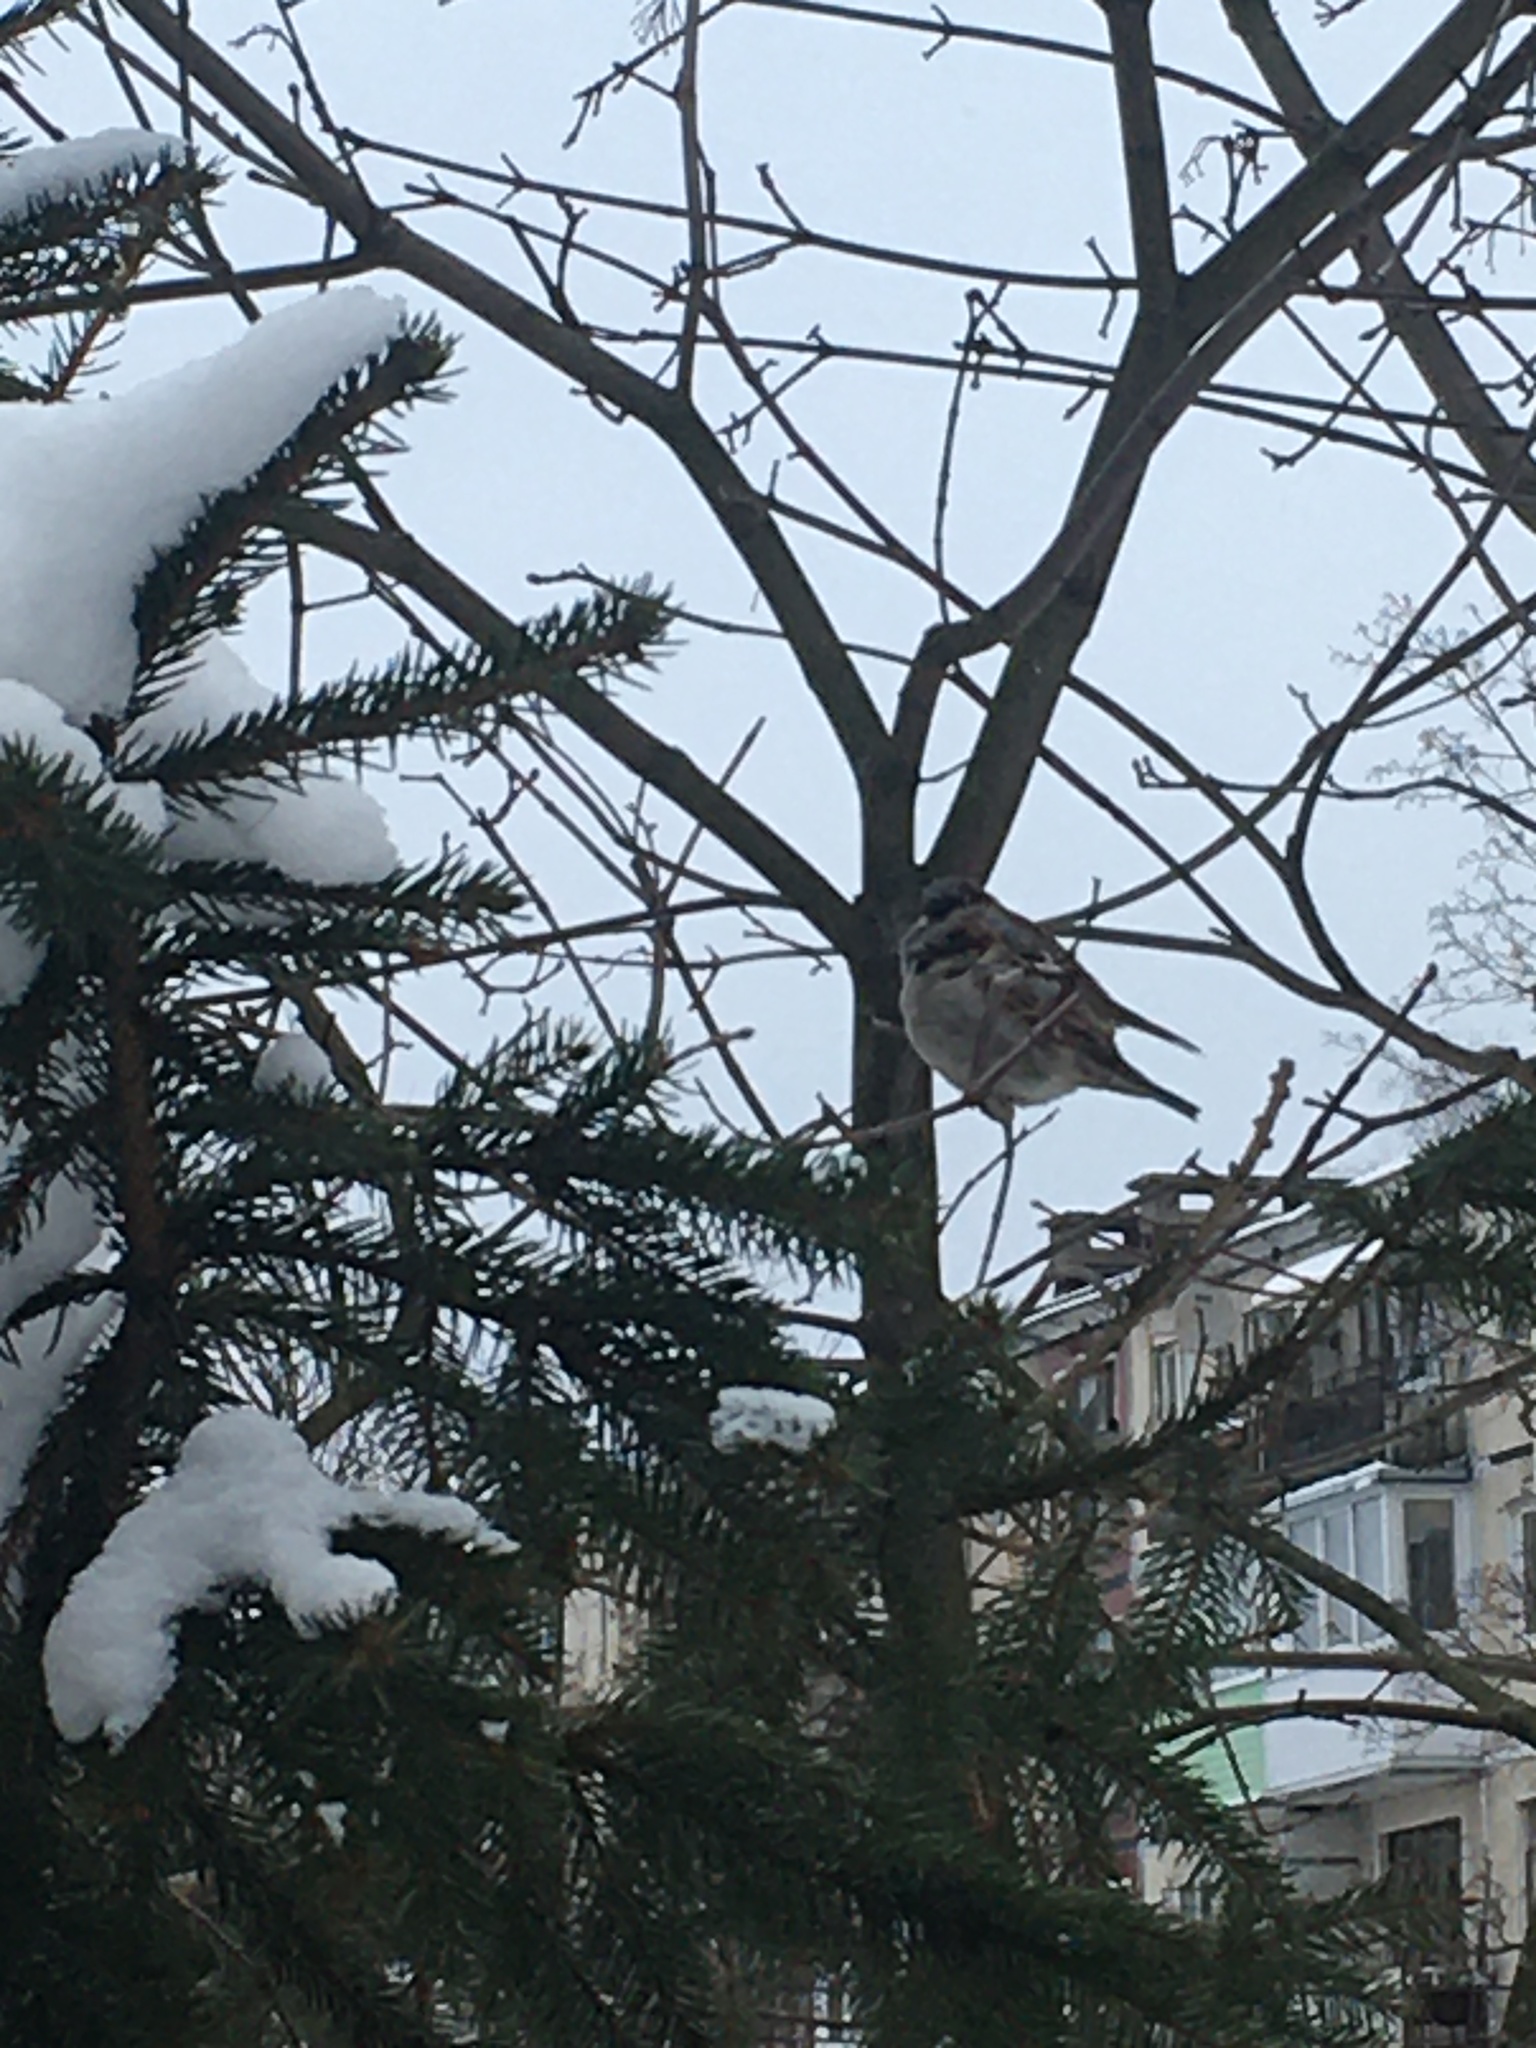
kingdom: Animalia
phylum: Chordata
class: Aves
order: Passeriformes
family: Passeridae
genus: Passer
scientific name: Passer domesticus
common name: House sparrow
